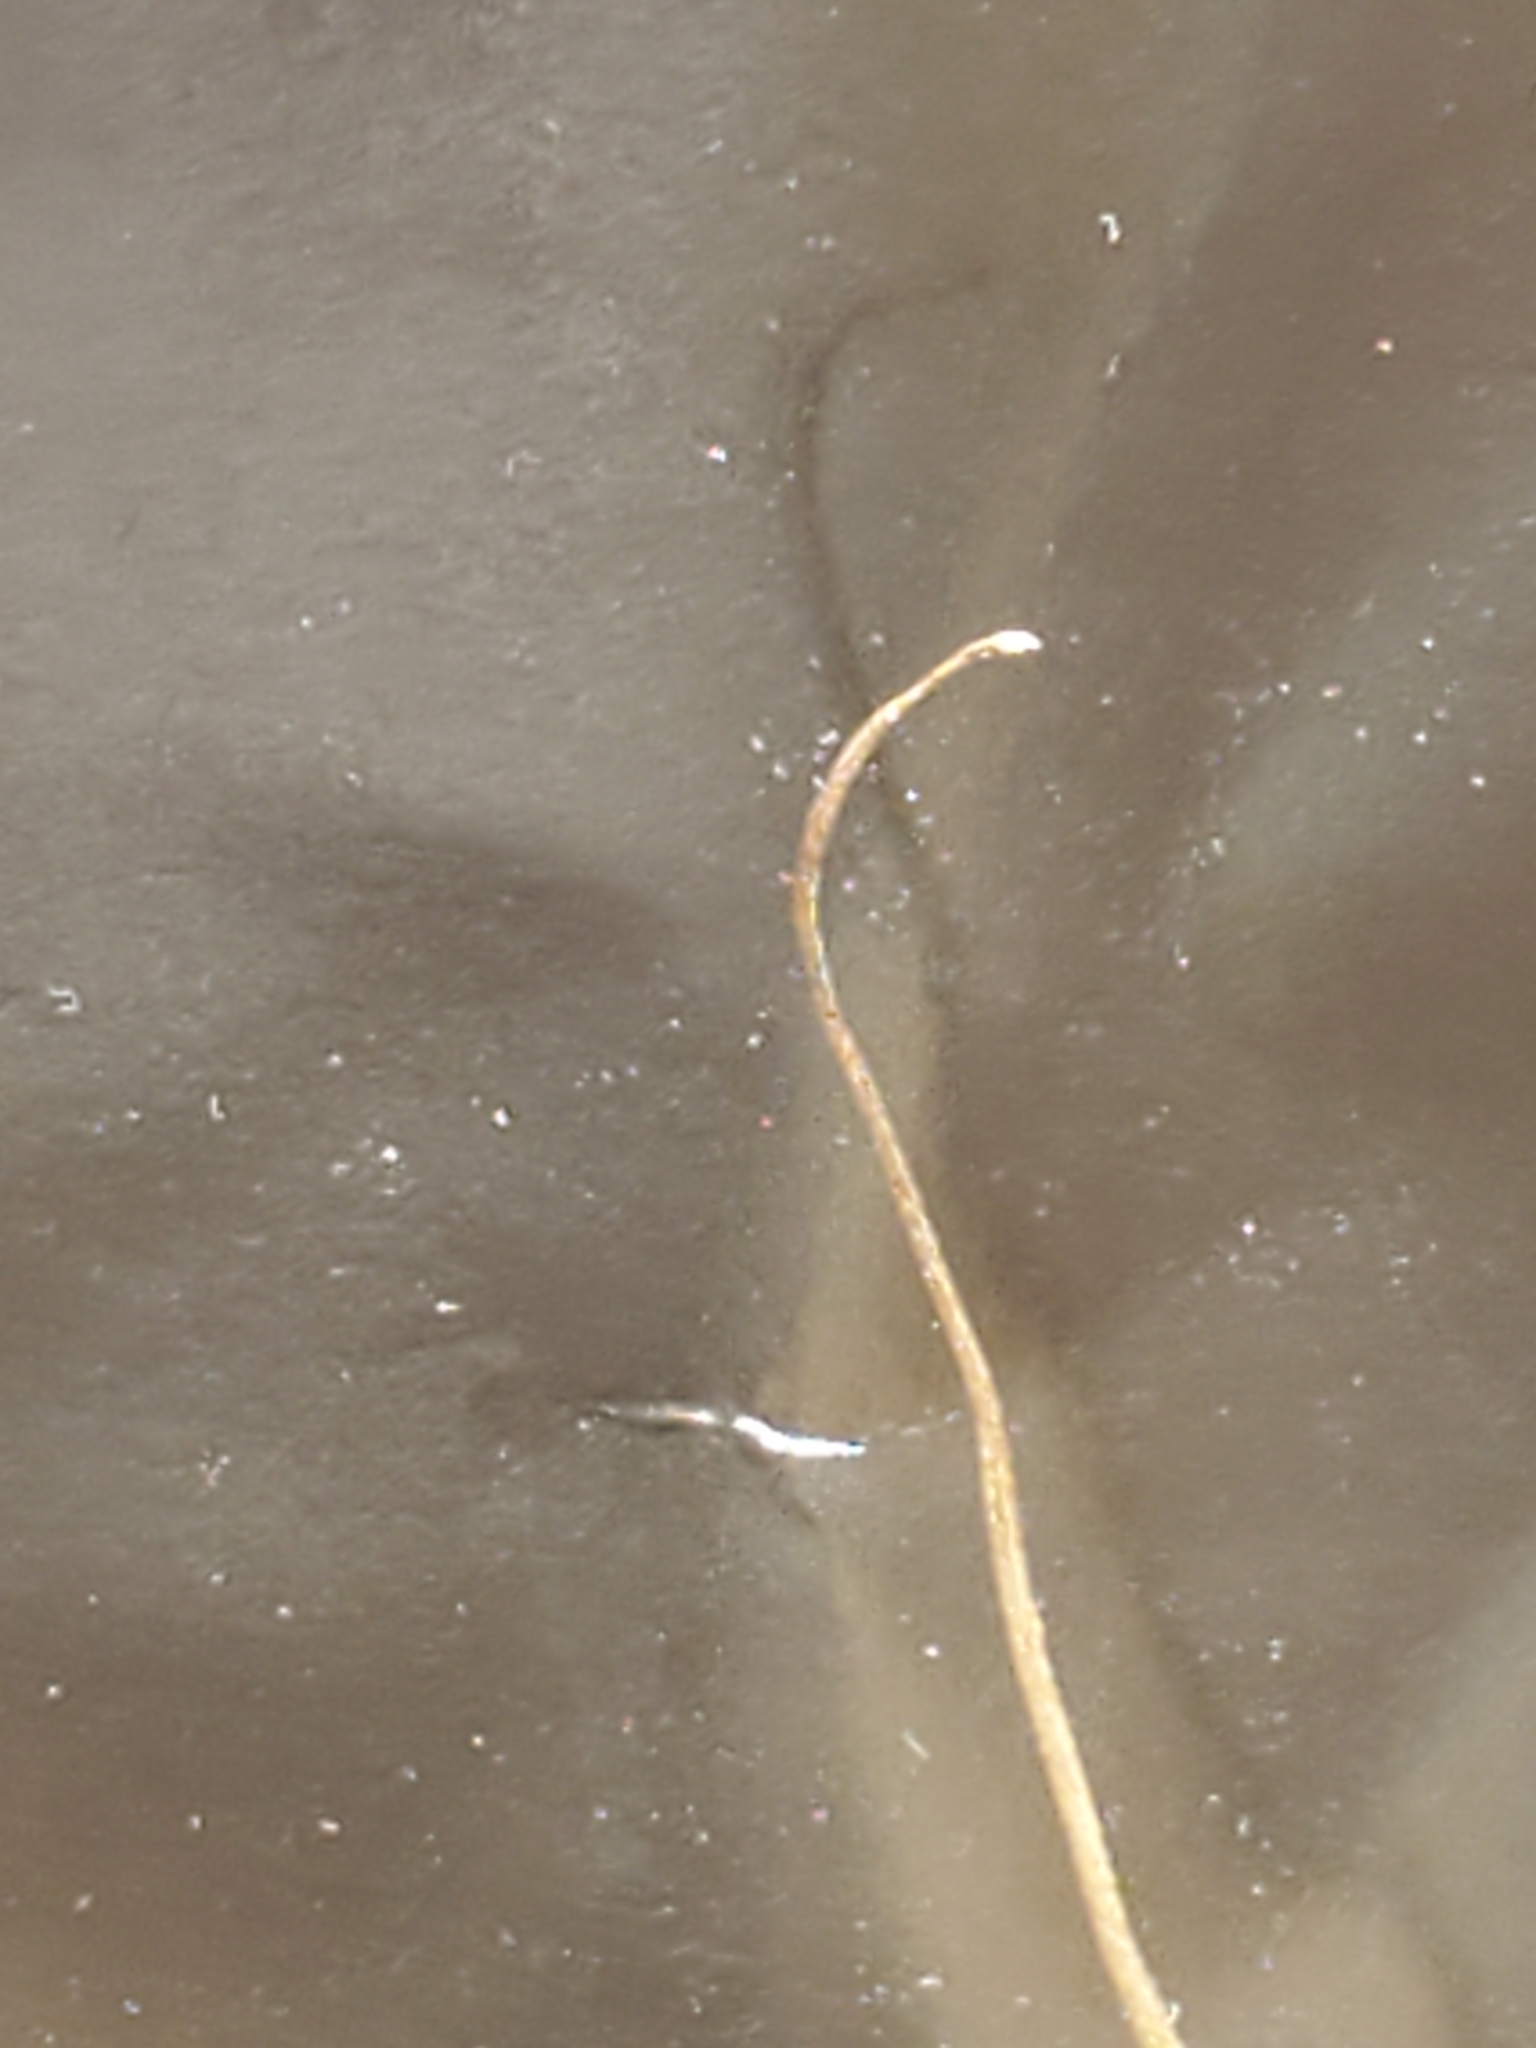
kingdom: Plantae
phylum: Tracheophyta
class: Magnoliopsida
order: Ranunculales
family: Ranunculaceae
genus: Anemone
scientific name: Anemone edwardsiana
